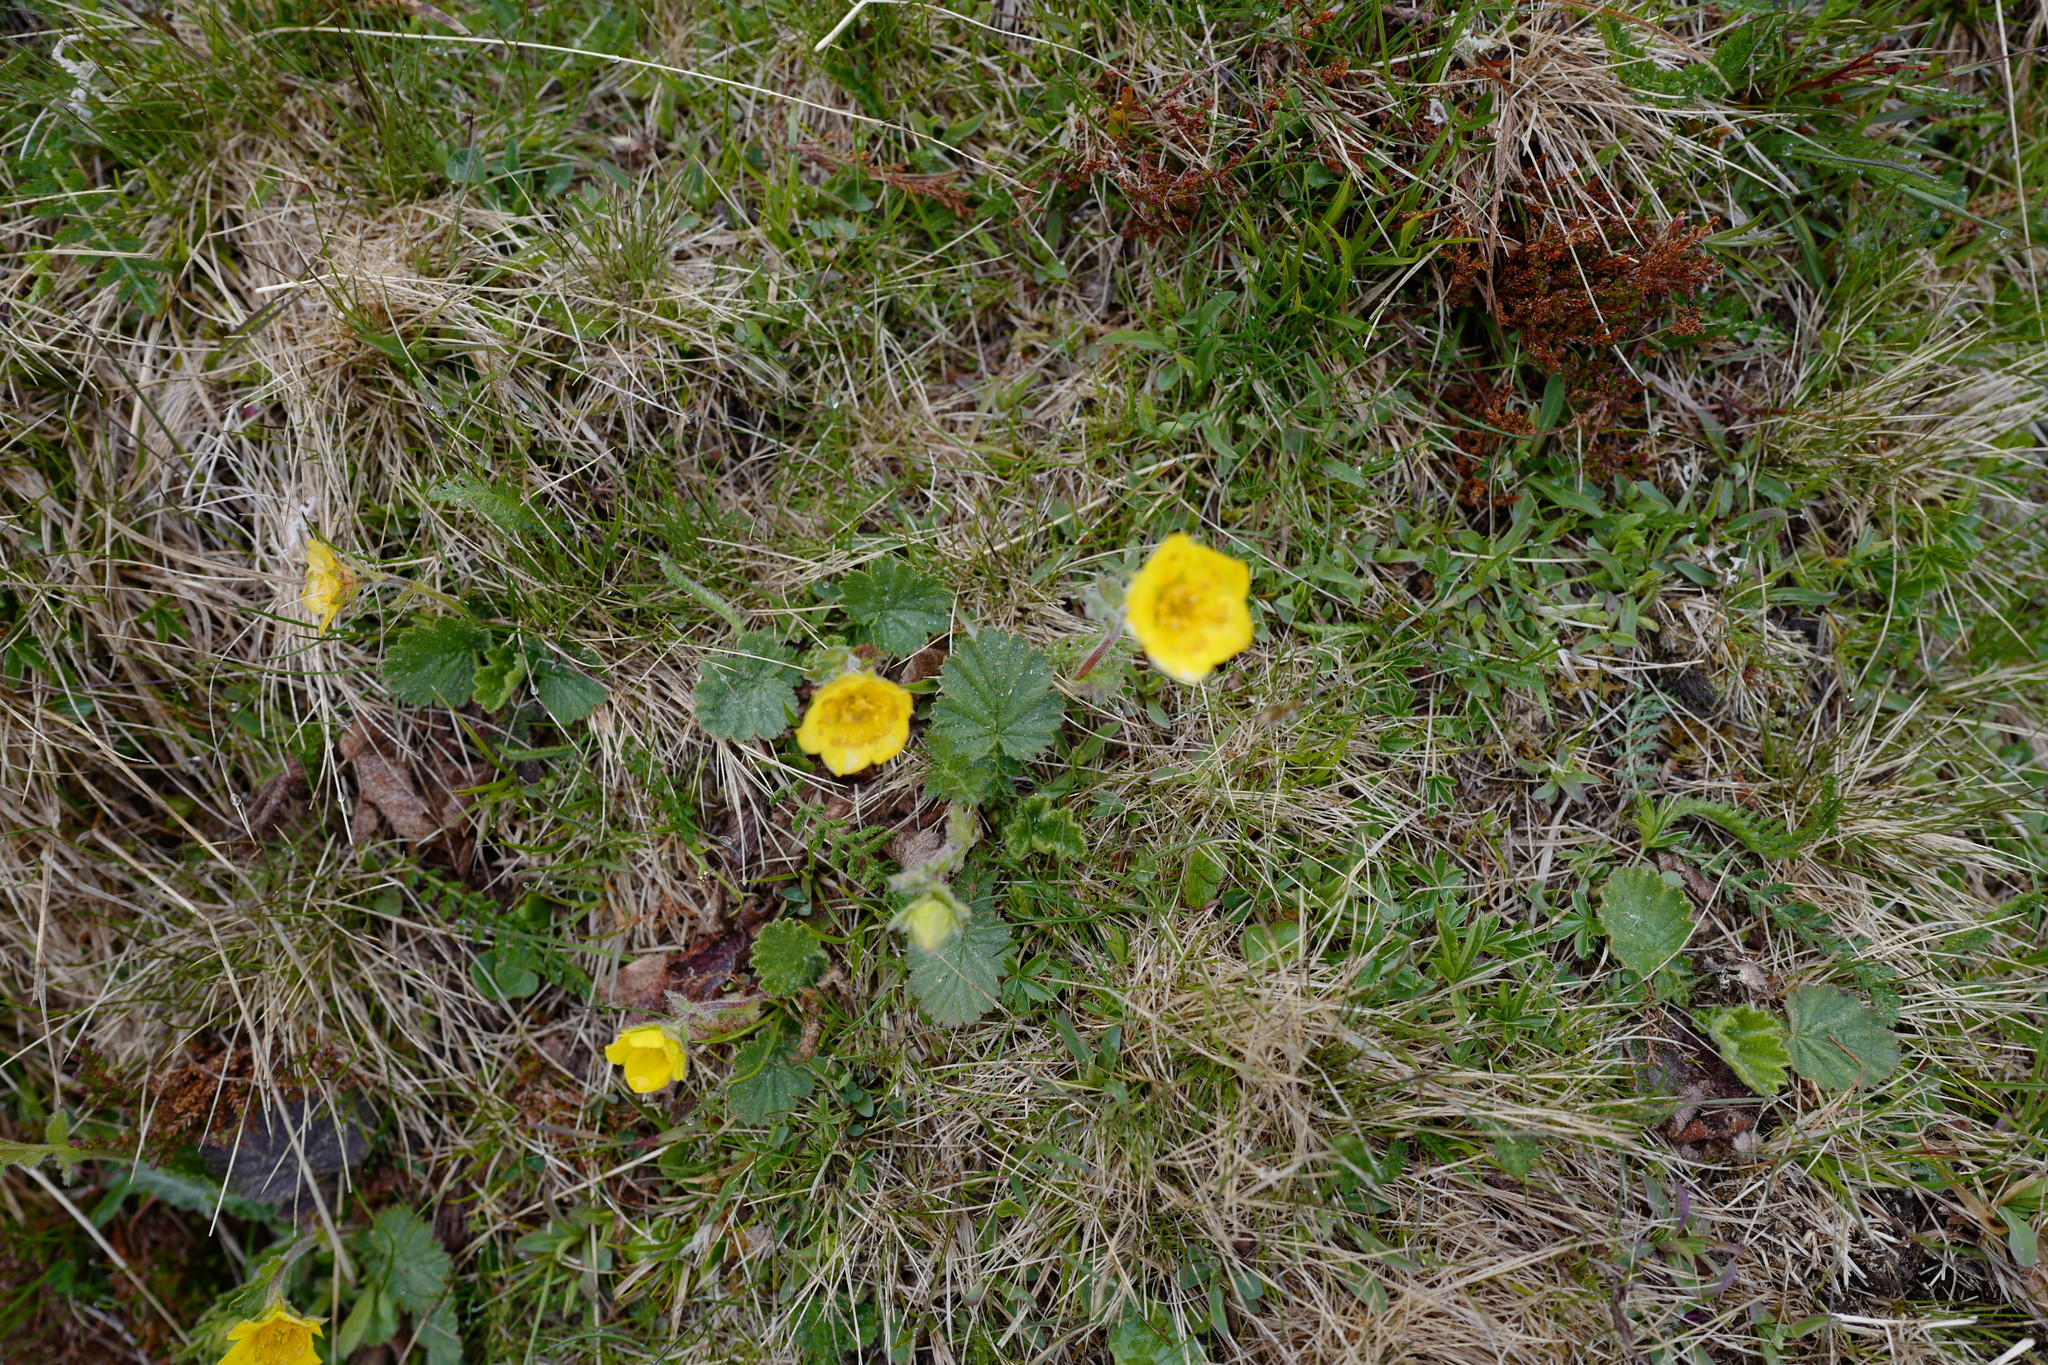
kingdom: Plantae
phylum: Tracheophyta
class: Magnoliopsida
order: Rosales
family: Rosaceae
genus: Geum
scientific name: Geum montanum
